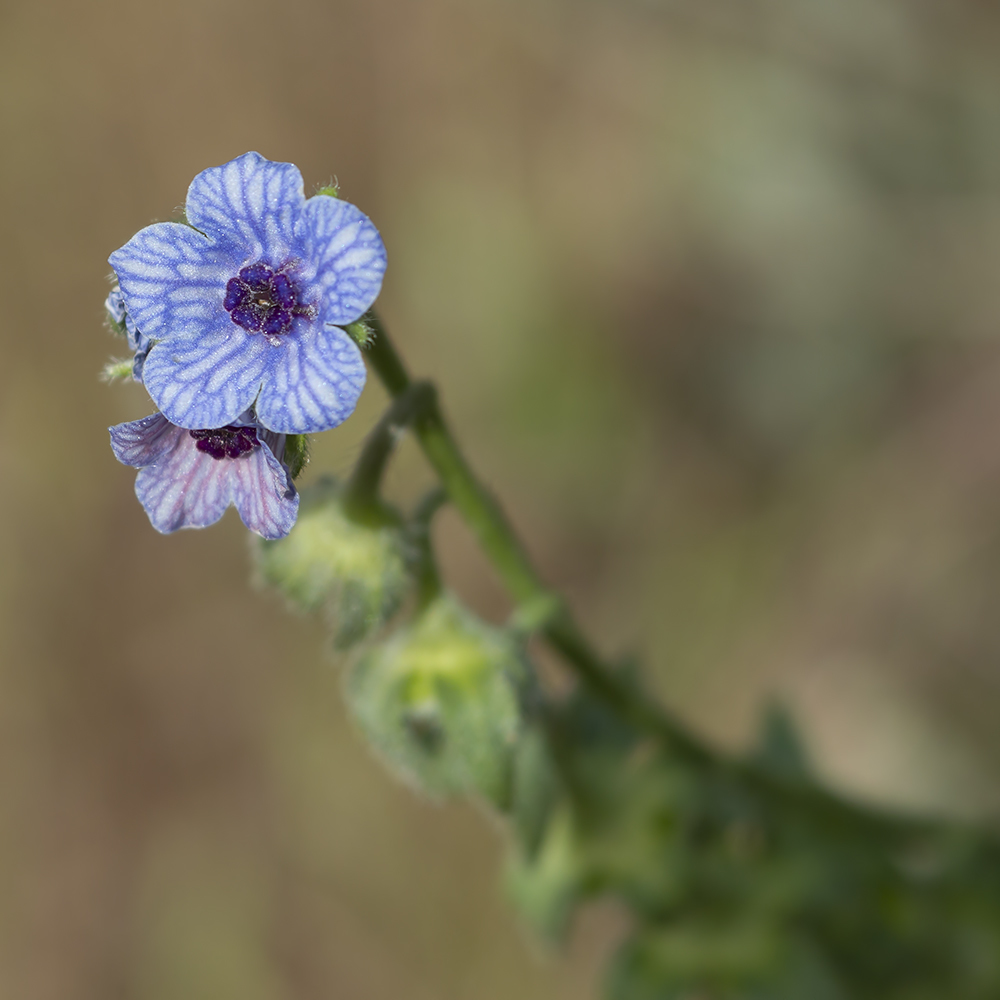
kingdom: Plantae
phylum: Tracheophyta
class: Magnoliopsida
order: Boraginales
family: Boraginaceae
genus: Cynoglossum
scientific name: Cynoglossum creticum
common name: Blue hound's tongue
